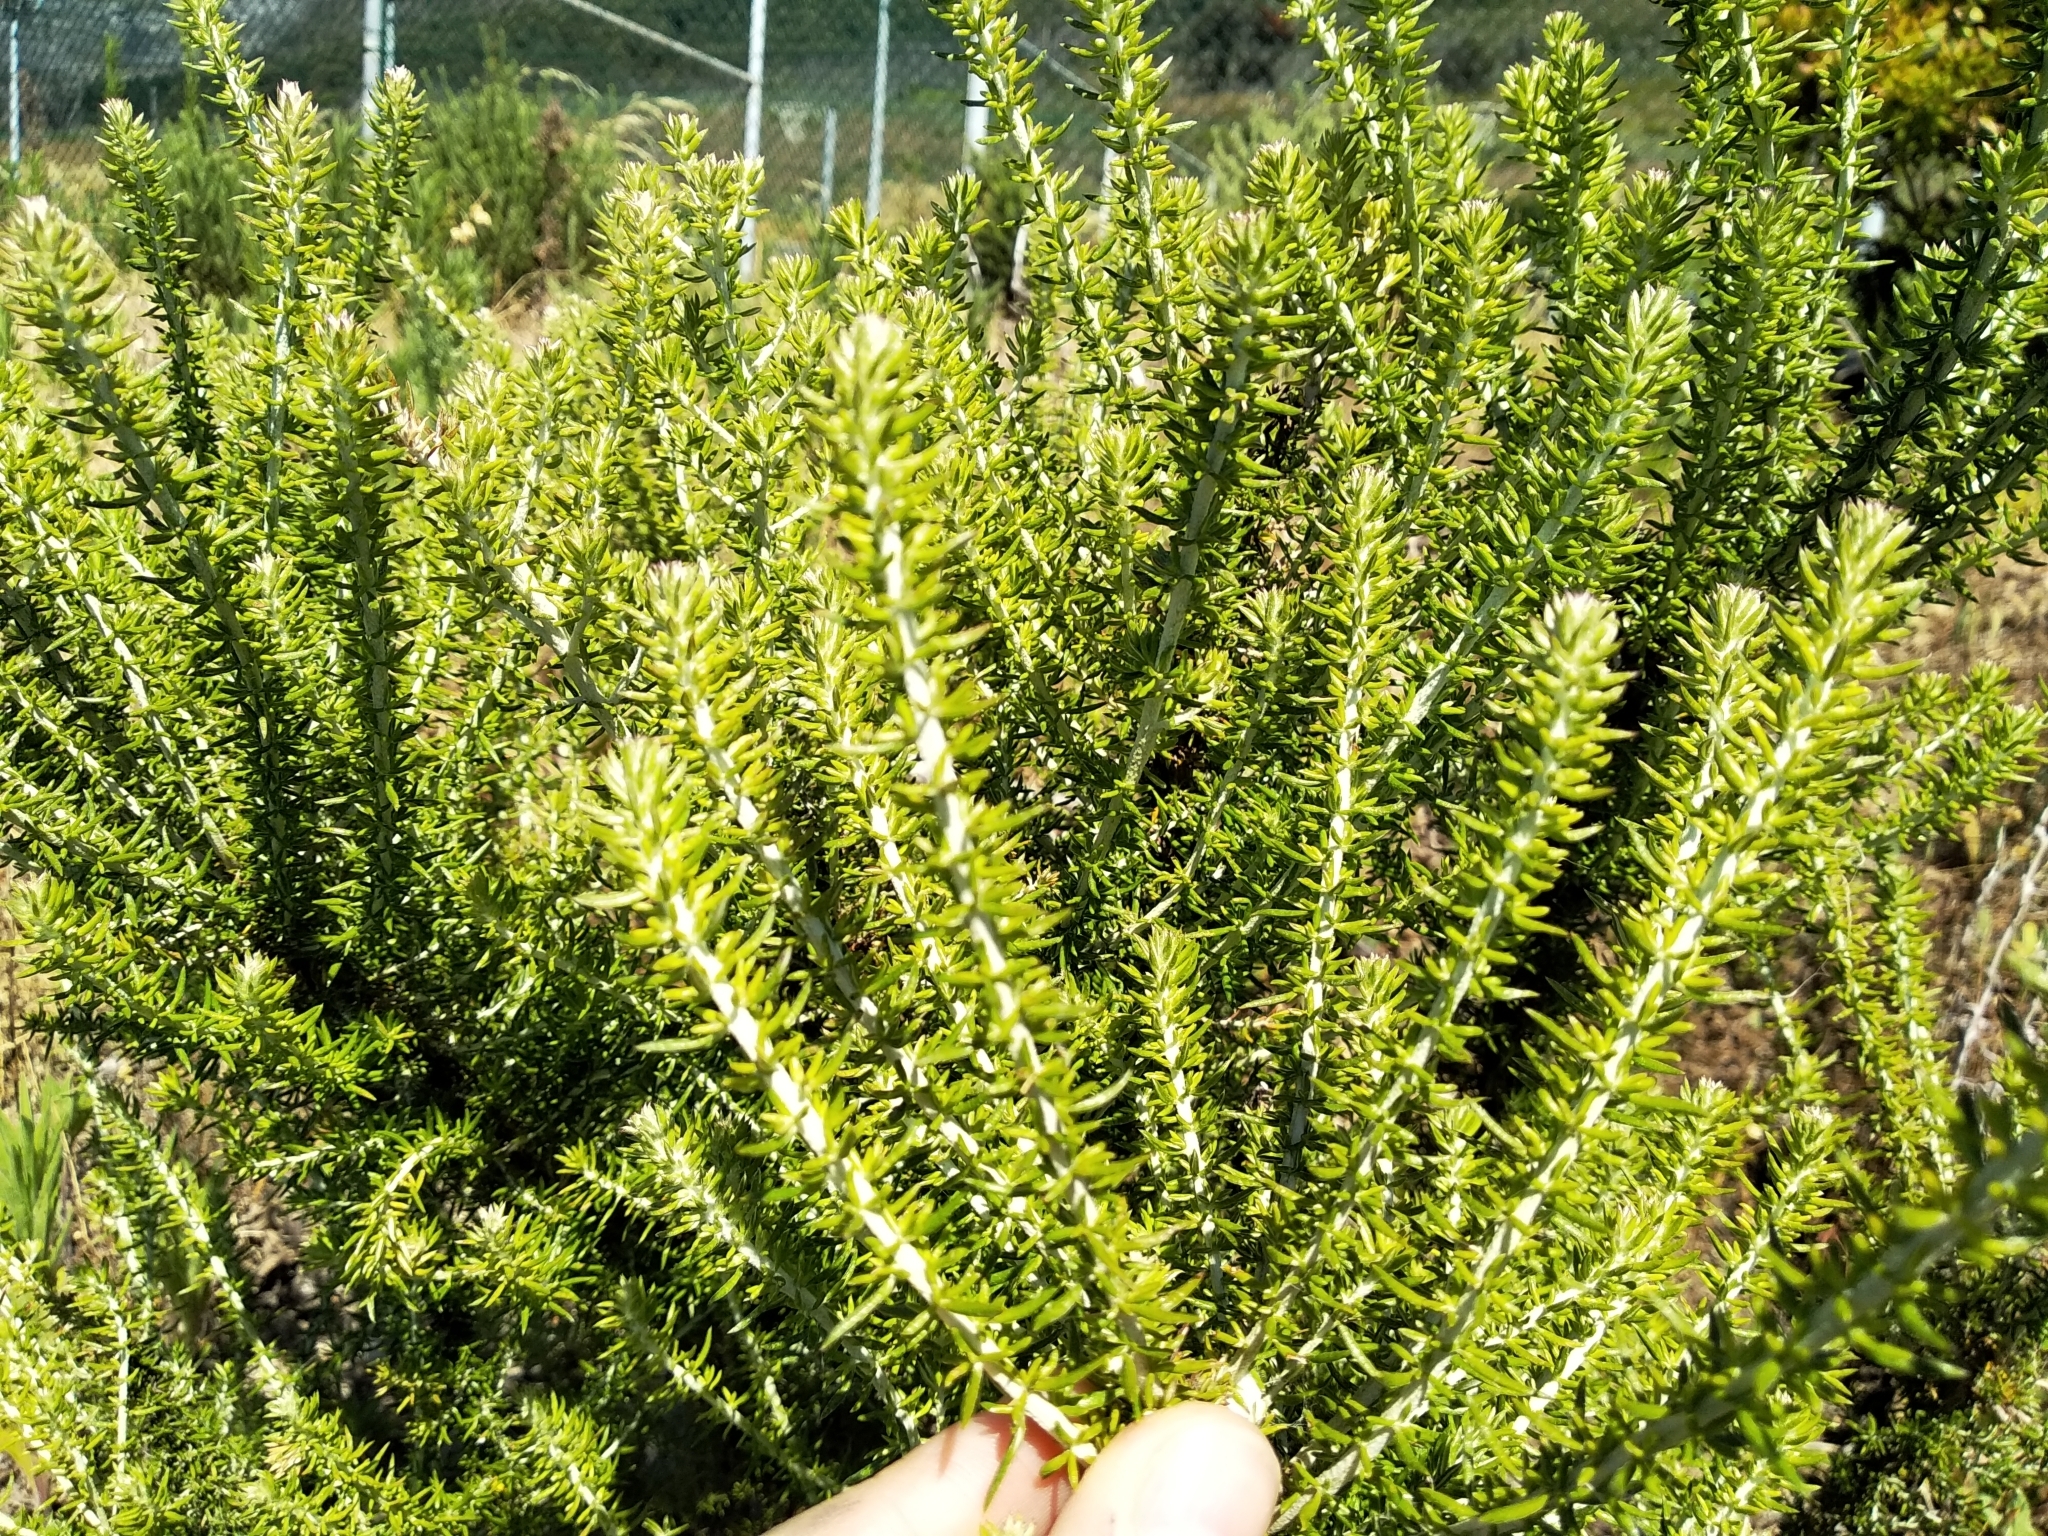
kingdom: Plantae
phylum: Tracheophyta
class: Magnoliopsida
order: Asterales
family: Asteraceae
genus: Metalasia
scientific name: Metalasia densa
